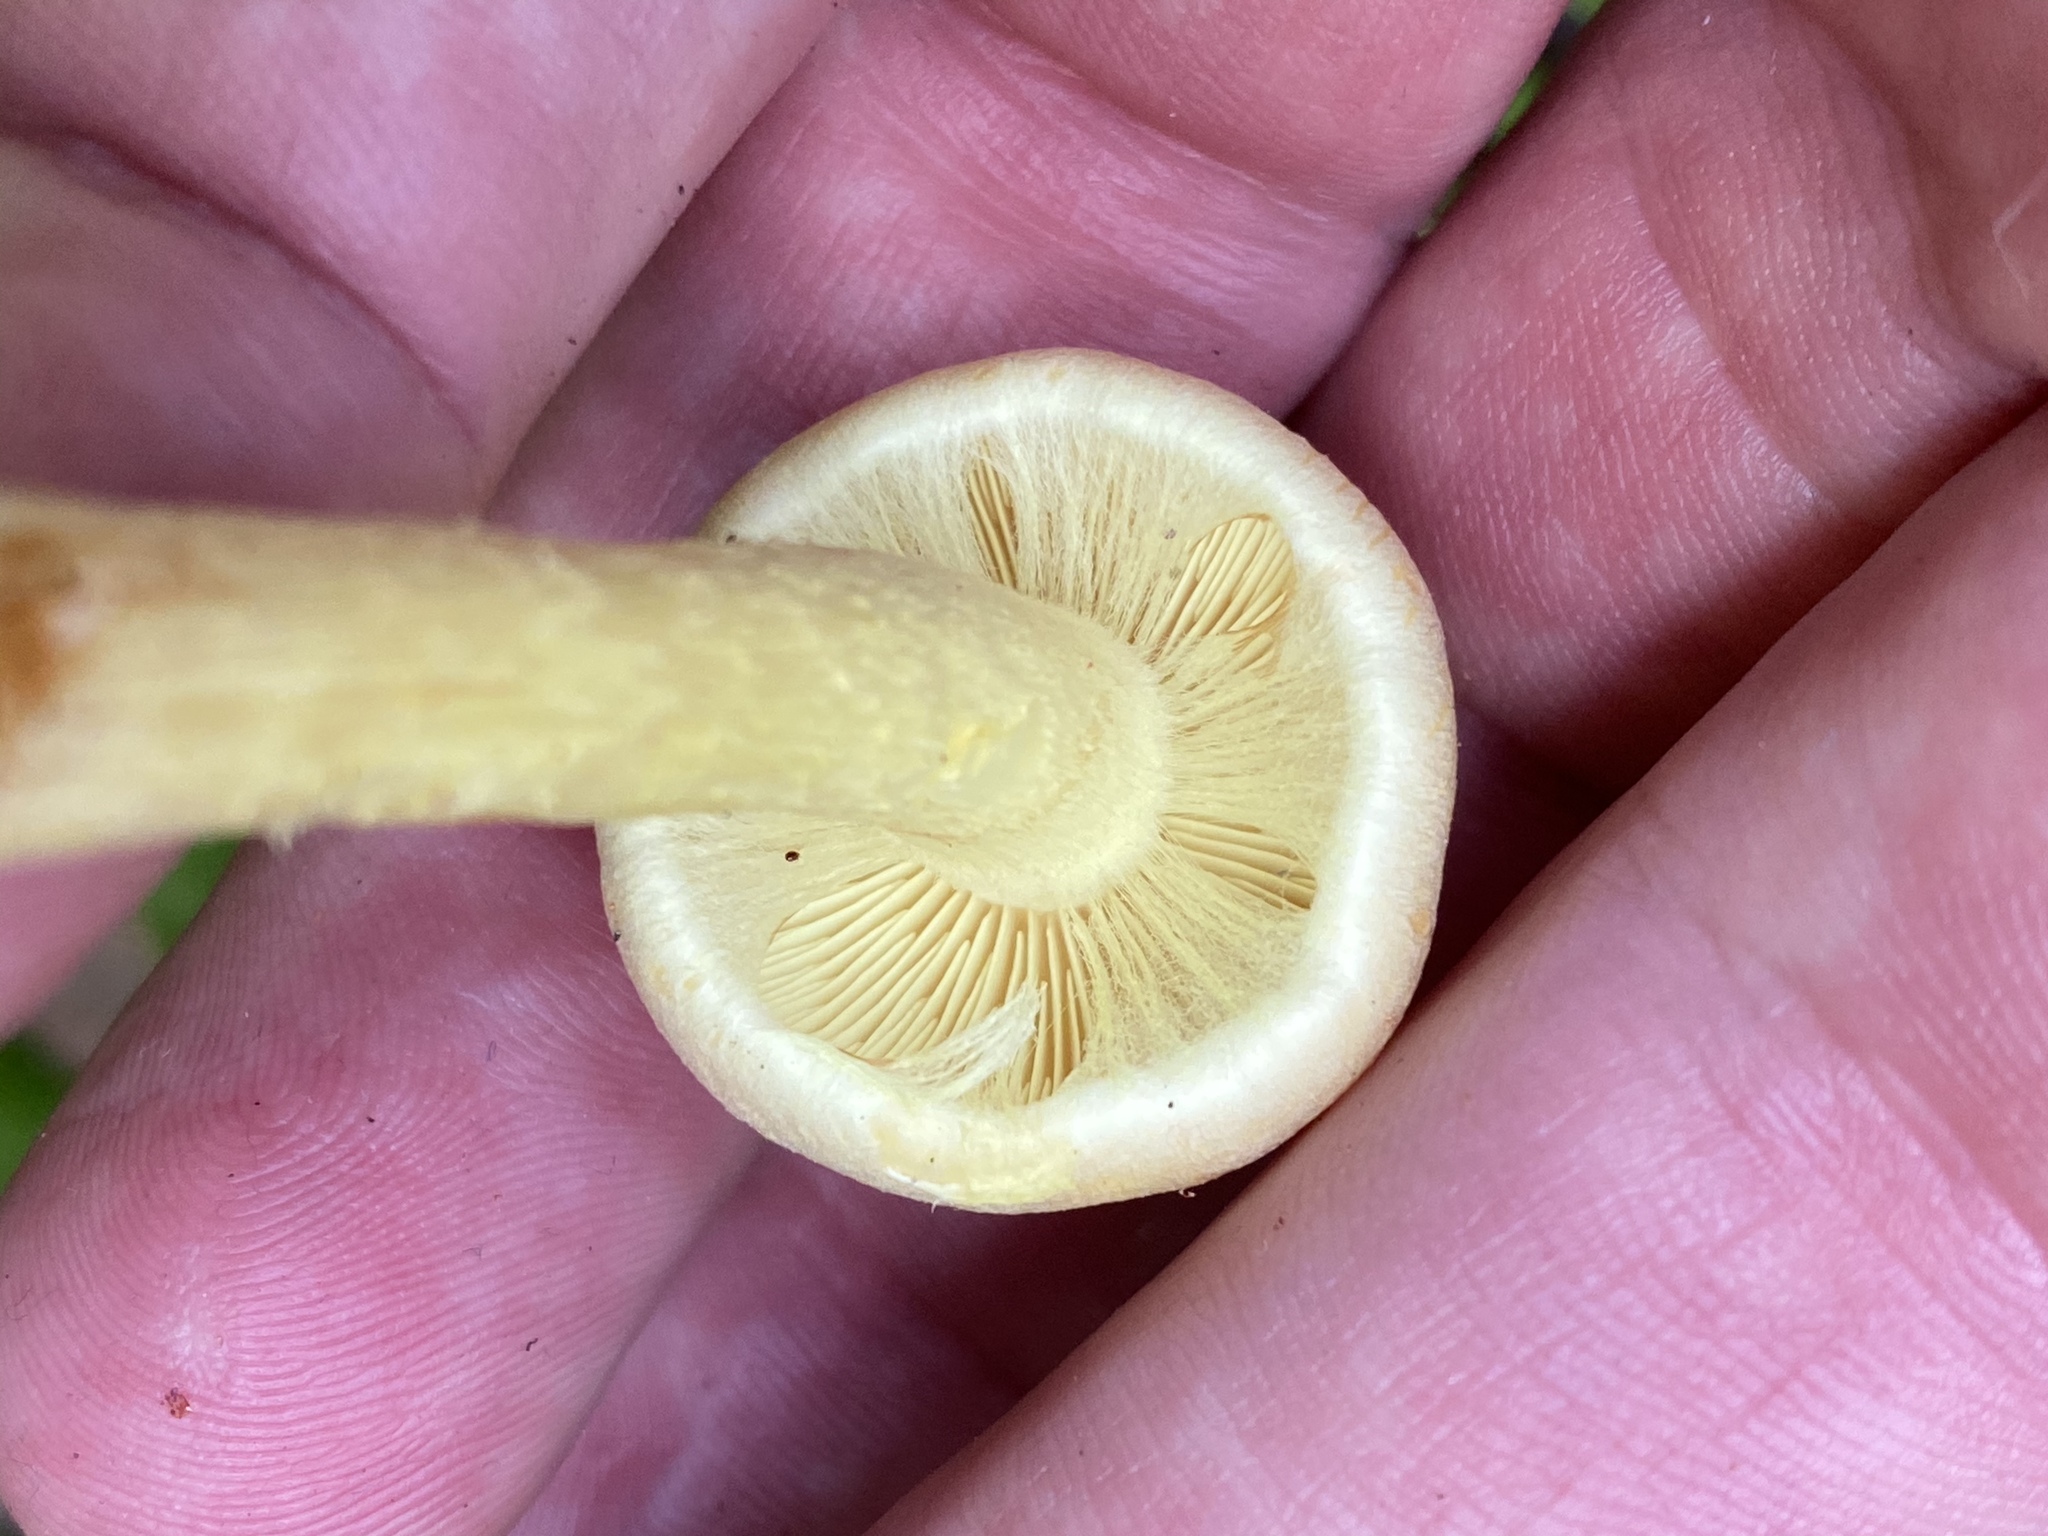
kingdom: Fungi
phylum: Basidiomycota
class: Agaricomycetes
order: Agaricales
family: Strophariaceae
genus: Hypholoma
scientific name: Hypholoma fasciculare
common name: Sulphur tuft
